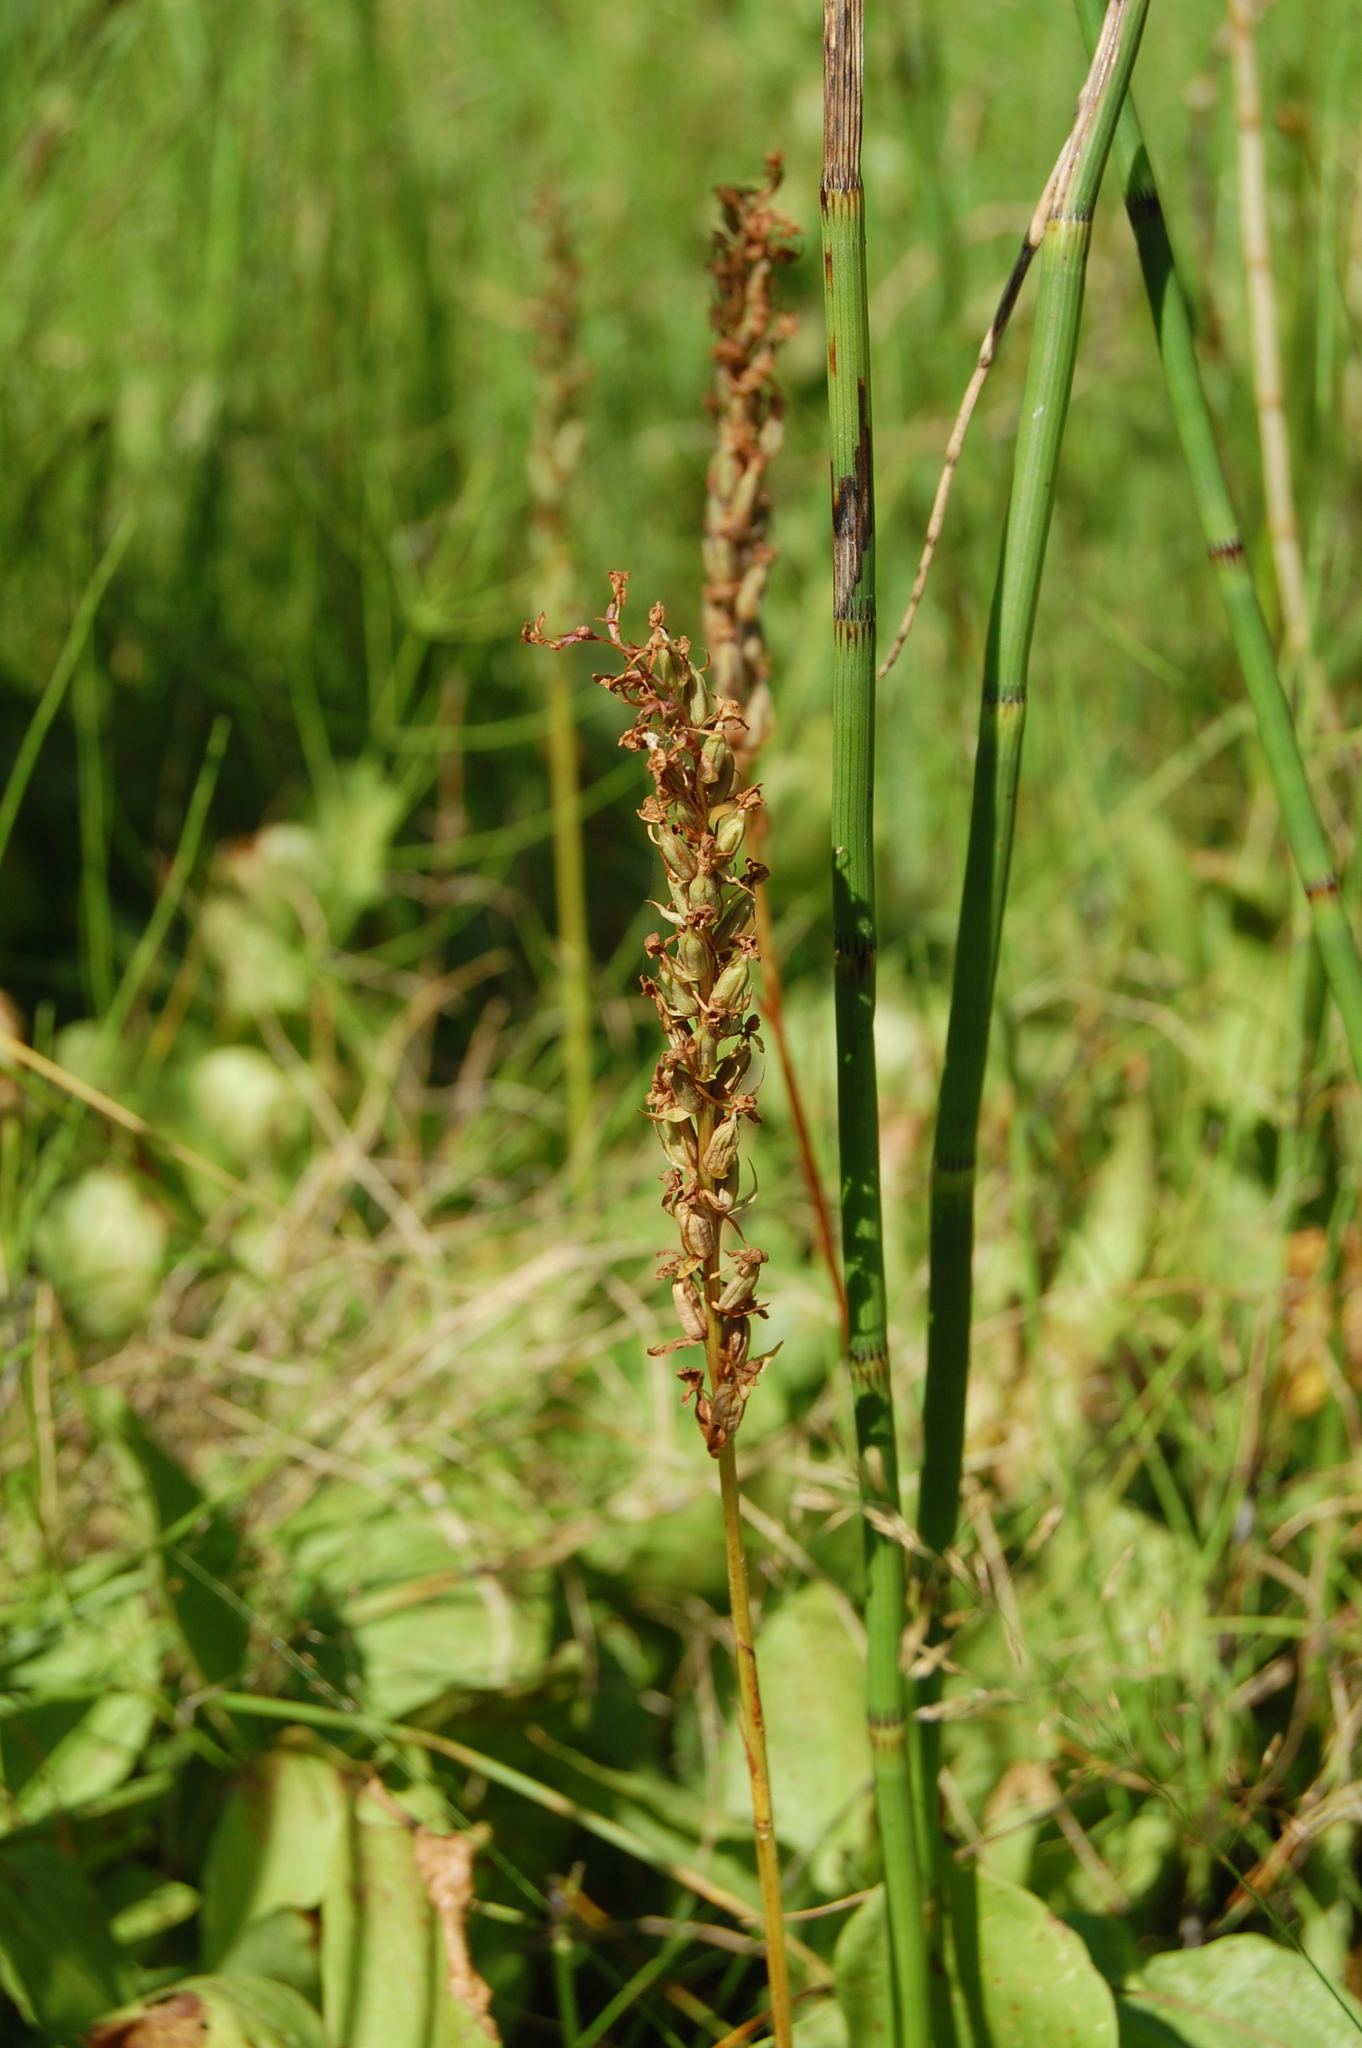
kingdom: Plantae
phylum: Tracheophyta
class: Liliopsida
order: Asparagales
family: Orchidaceae
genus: Gymnadenia
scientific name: Gymnadenia conopsea
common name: Fragrant orchid
